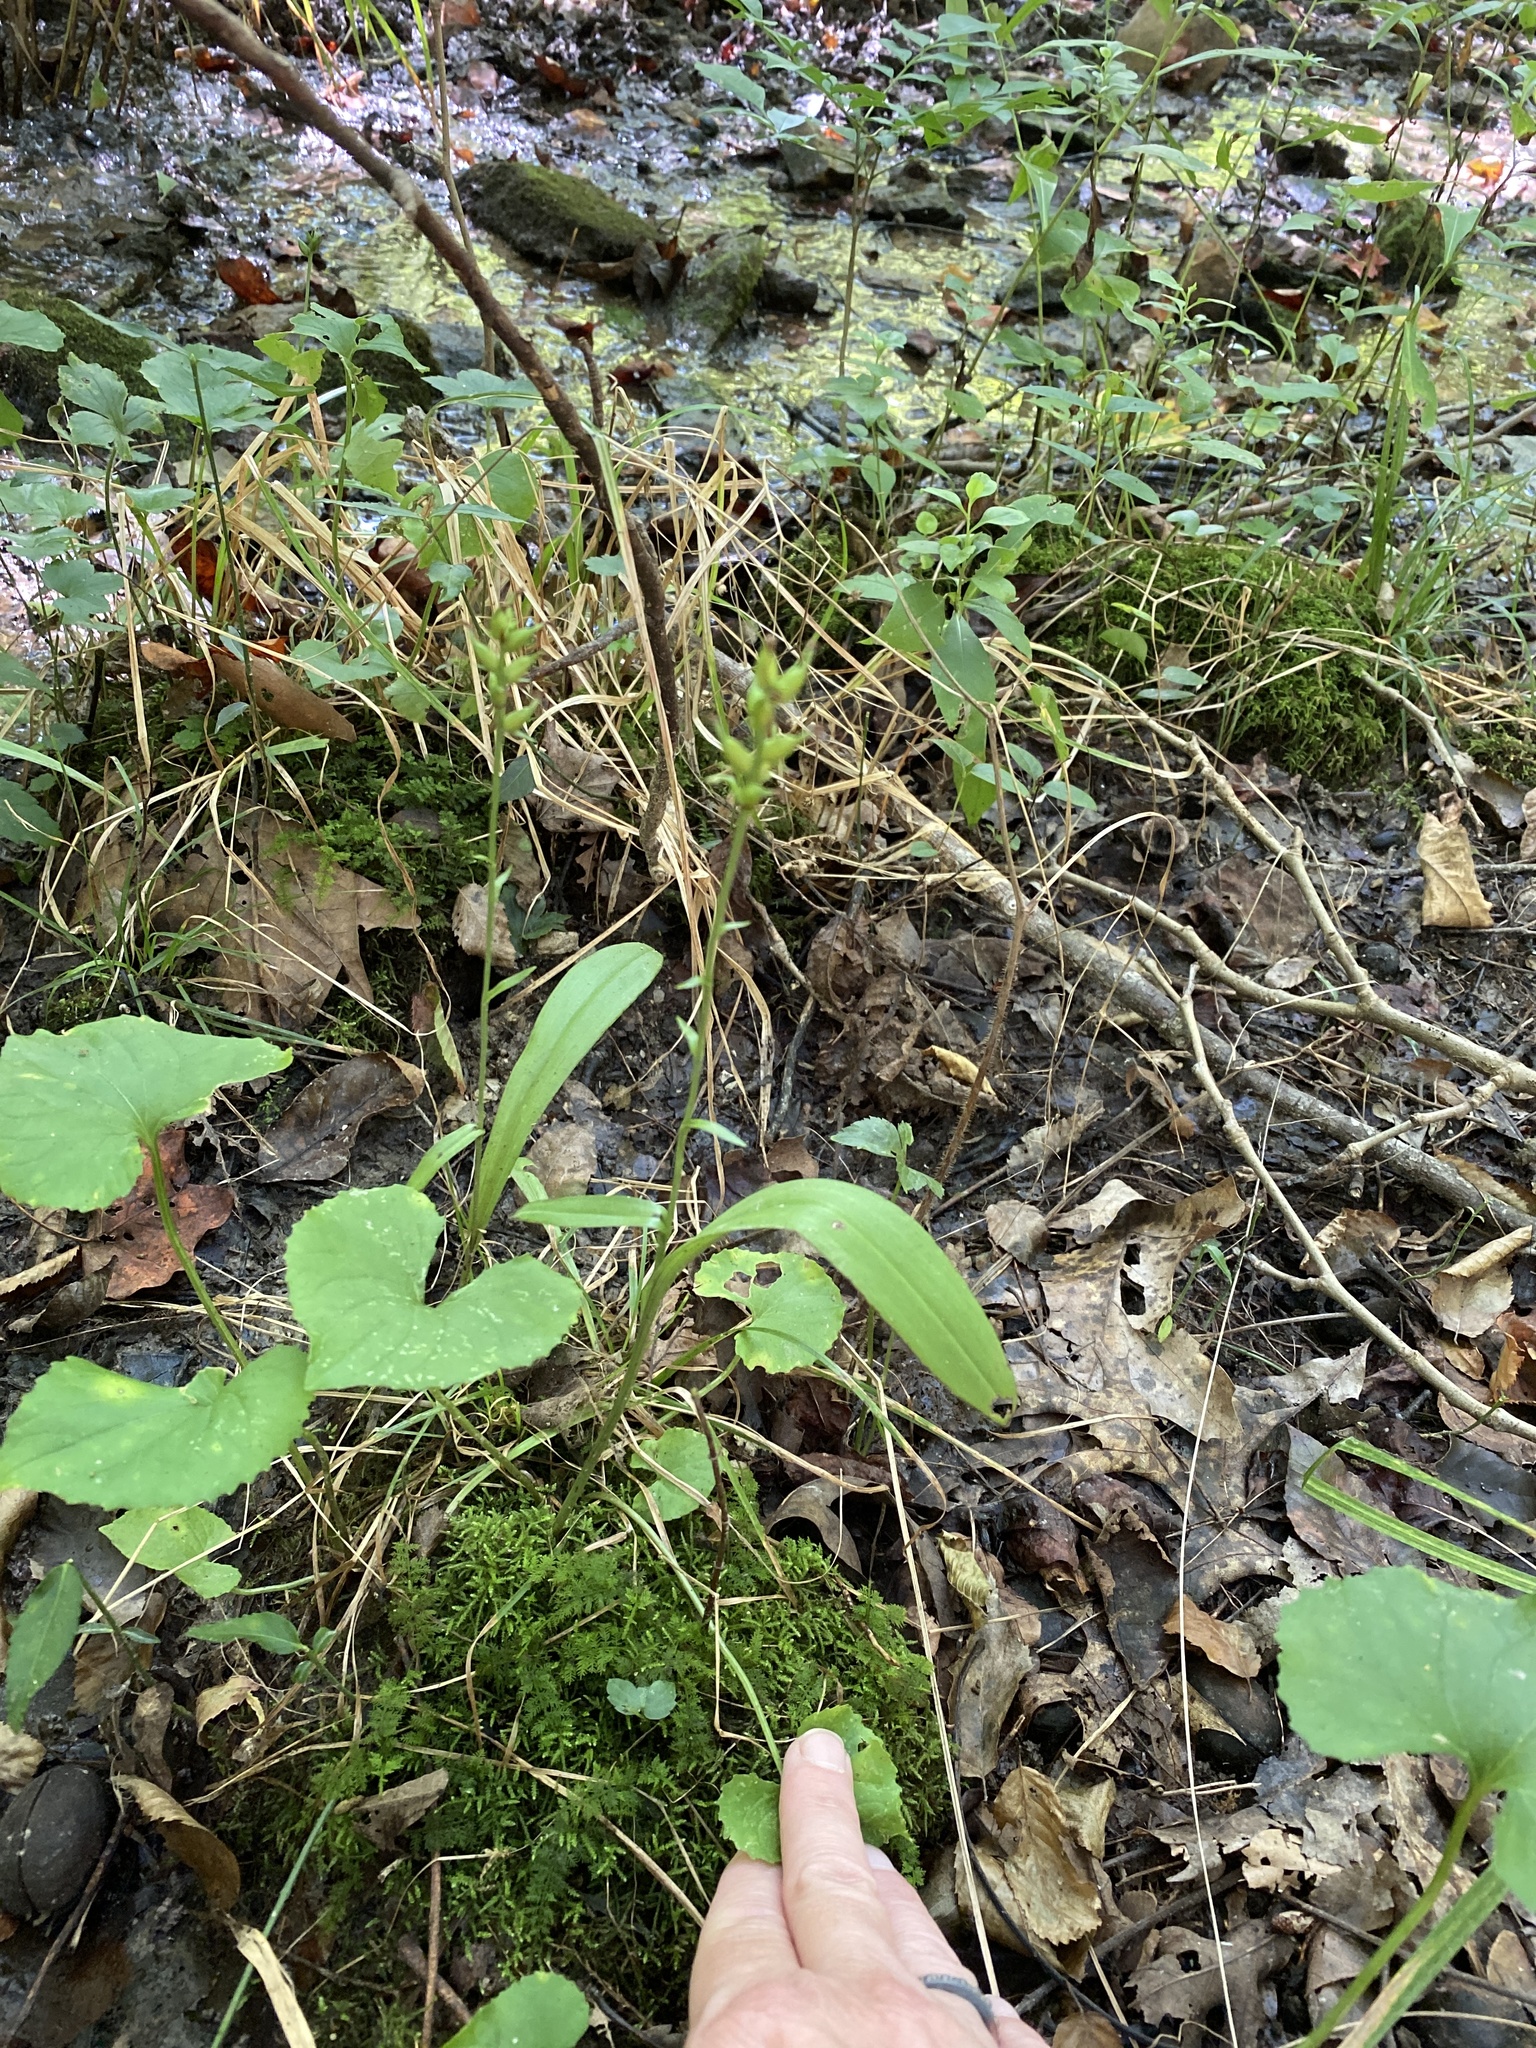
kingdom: Plantae
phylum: Tracheophyta
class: Liliopsida
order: Asparagales
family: Orchidaceae
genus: Platanthera
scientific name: Platanthera clavellata
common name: Club-spur orchid
